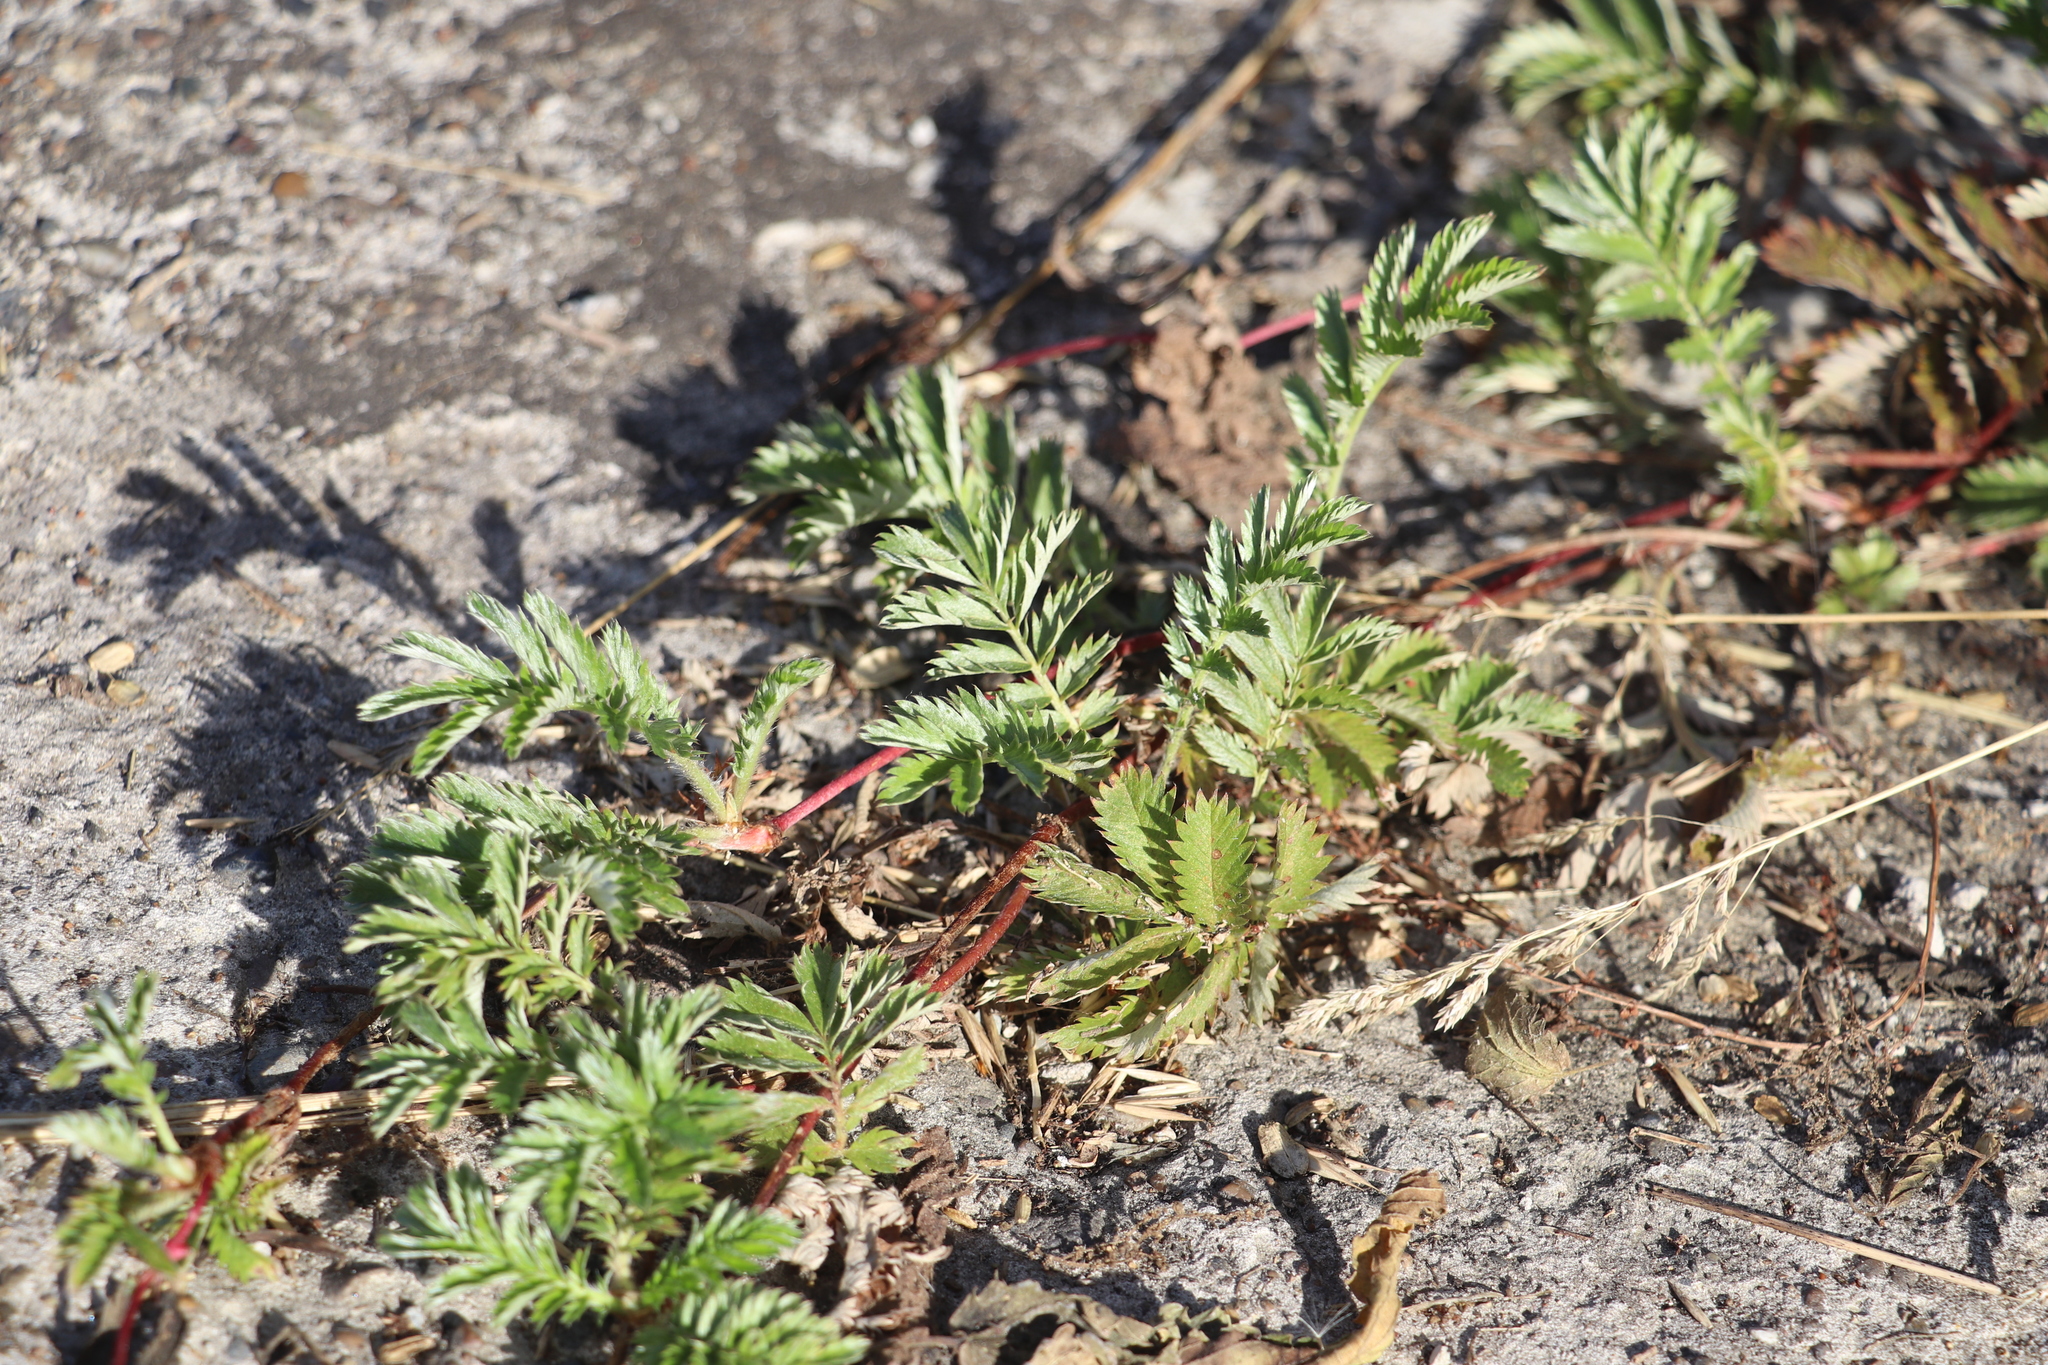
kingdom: Plantae
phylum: Tracheophyta
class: Magnoliopsida
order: Rosales
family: Rosaceae
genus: Argentina
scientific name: Argentina anserina
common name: Common silverweed
